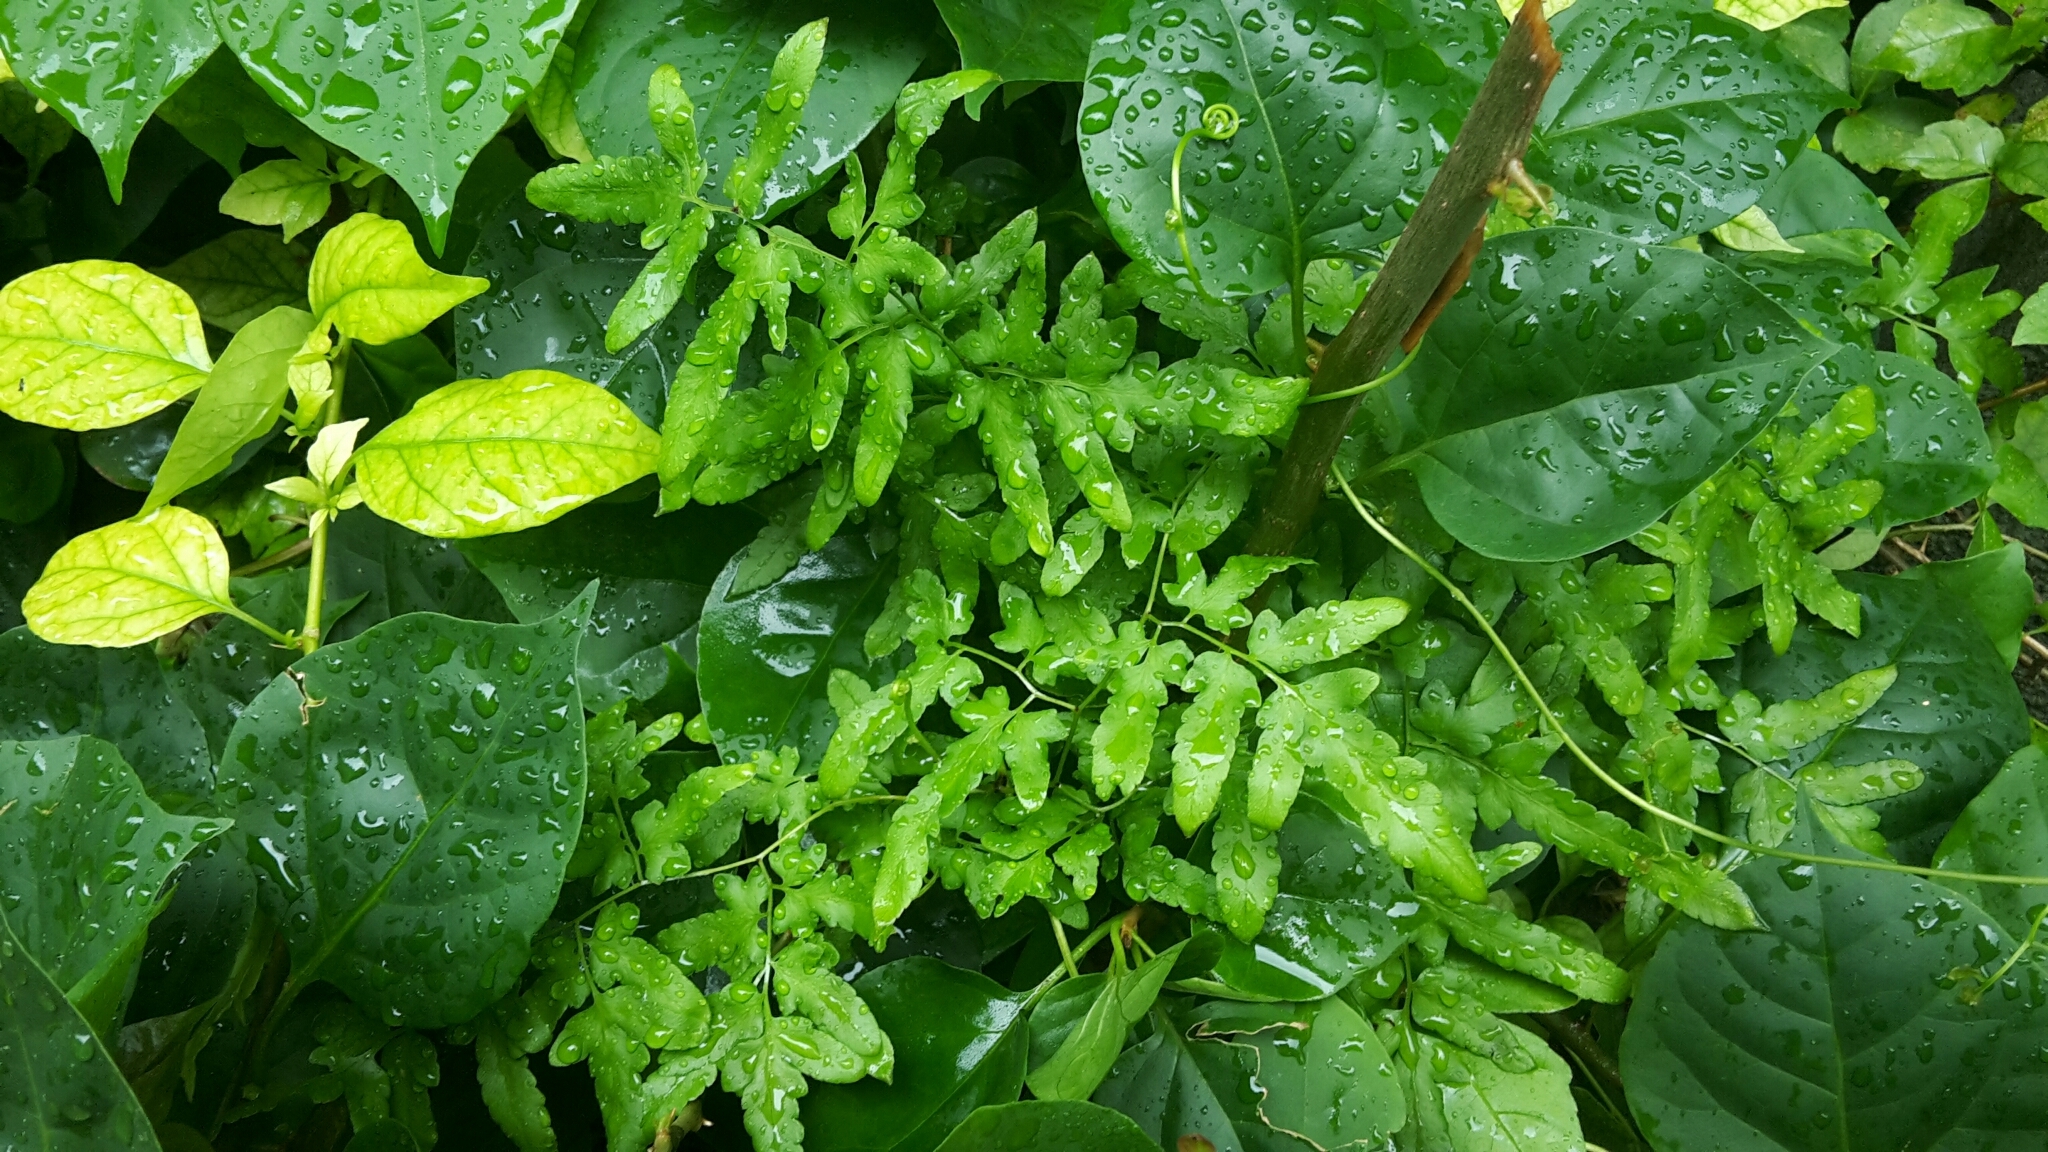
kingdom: Plantae
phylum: Tracheophyta
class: Polypodiopsida
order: Schizaeales
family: Lygodiaceae
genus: Lygodium
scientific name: Lygodium japonicum
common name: Japanese climbing fern
